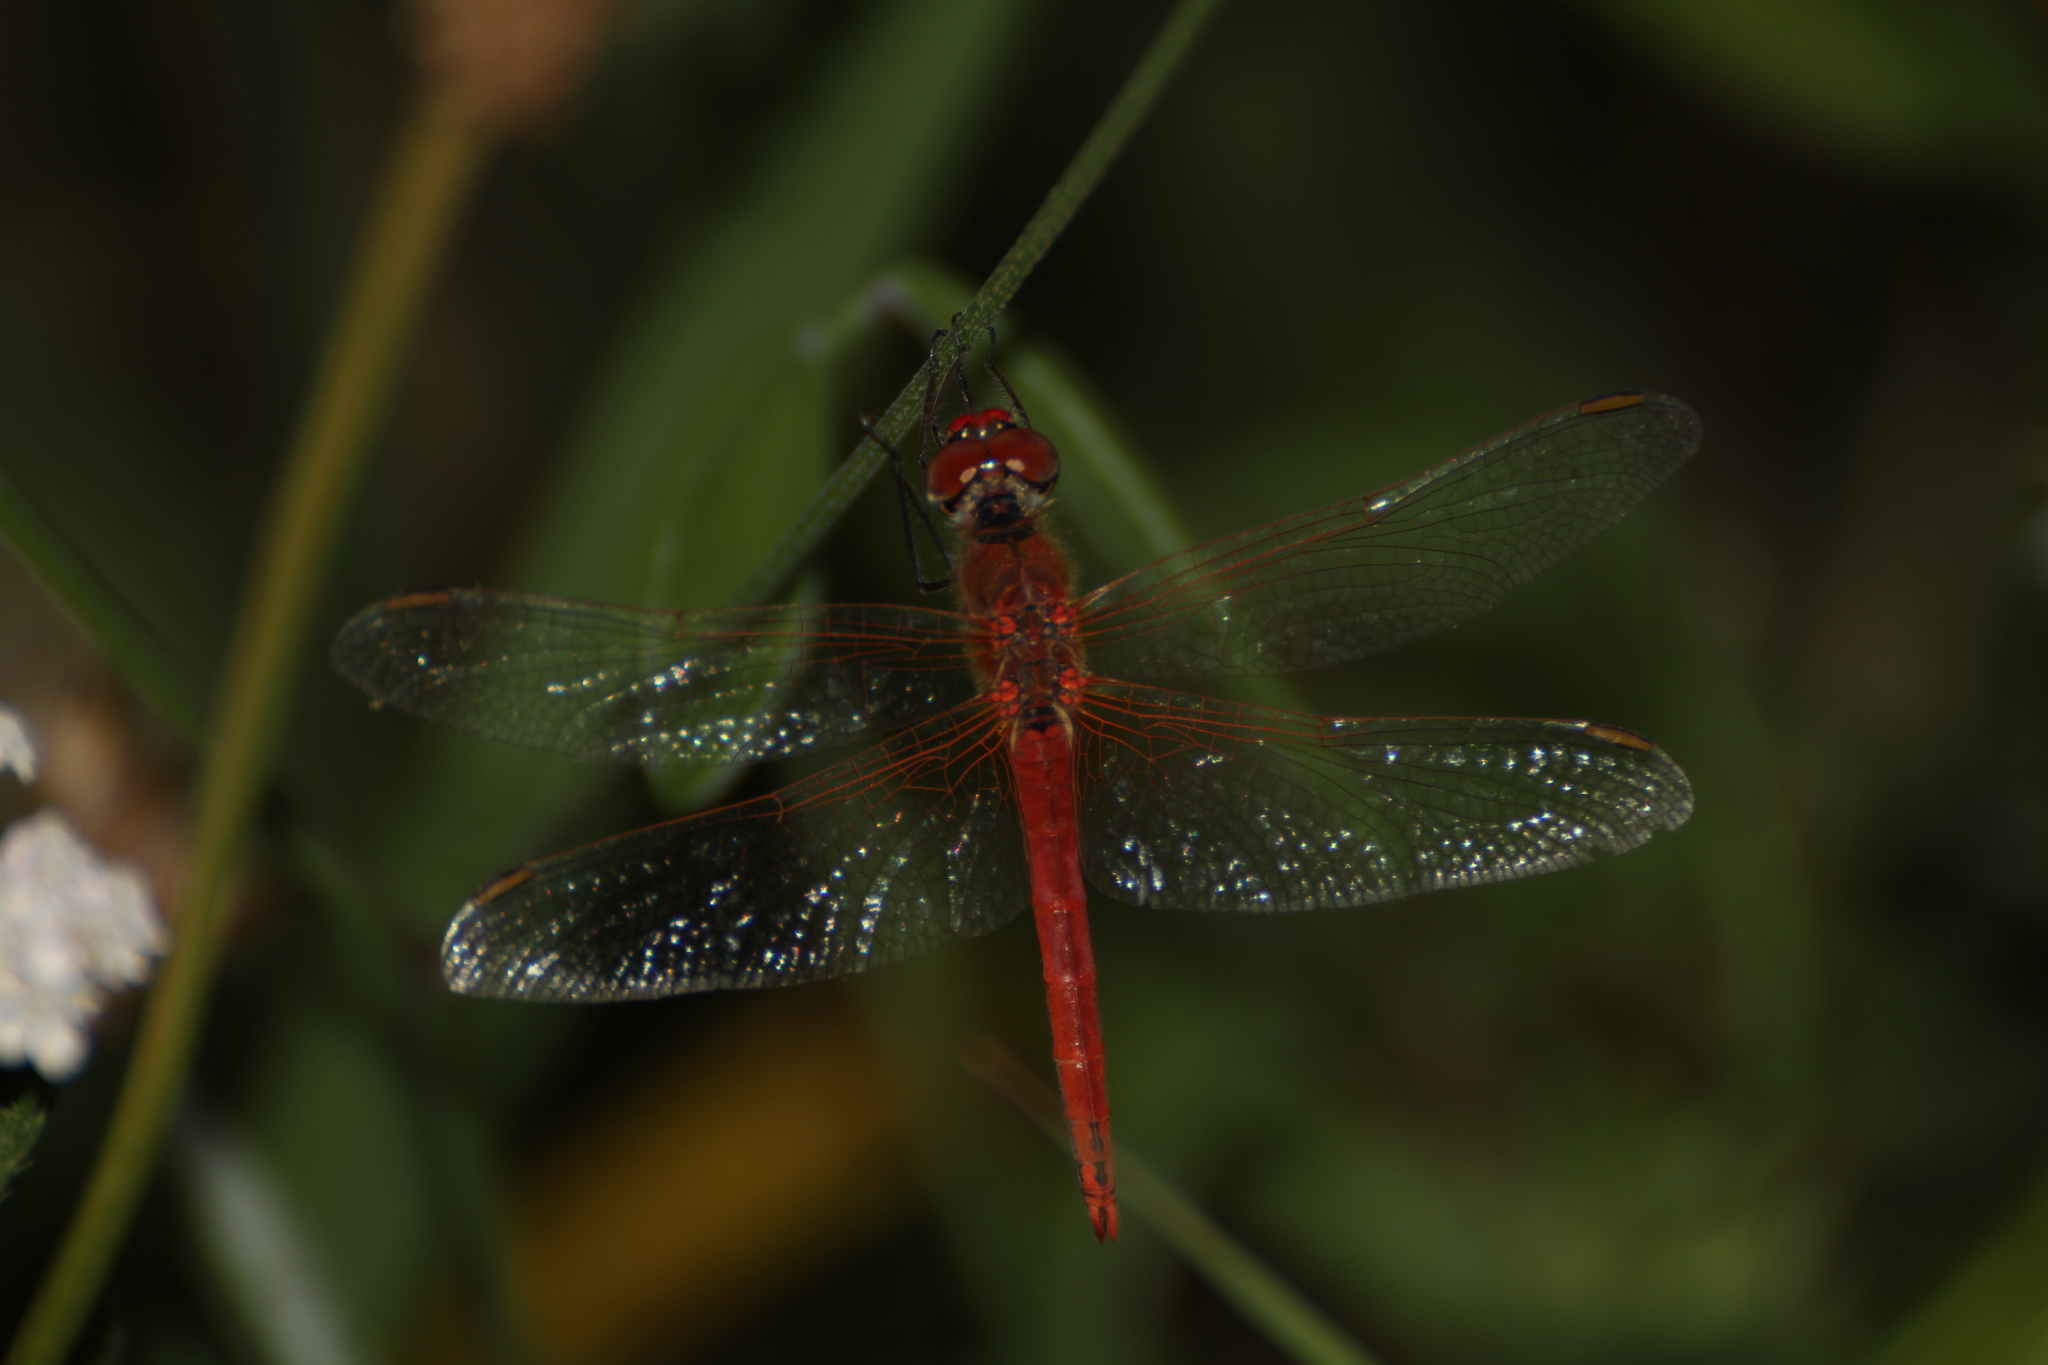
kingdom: Animalia
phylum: Arthropoda
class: Insecta
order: Odonata
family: Libellulidae
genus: Sympetrum
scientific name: Sympetrum fonscolombii
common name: Red-veined darter
